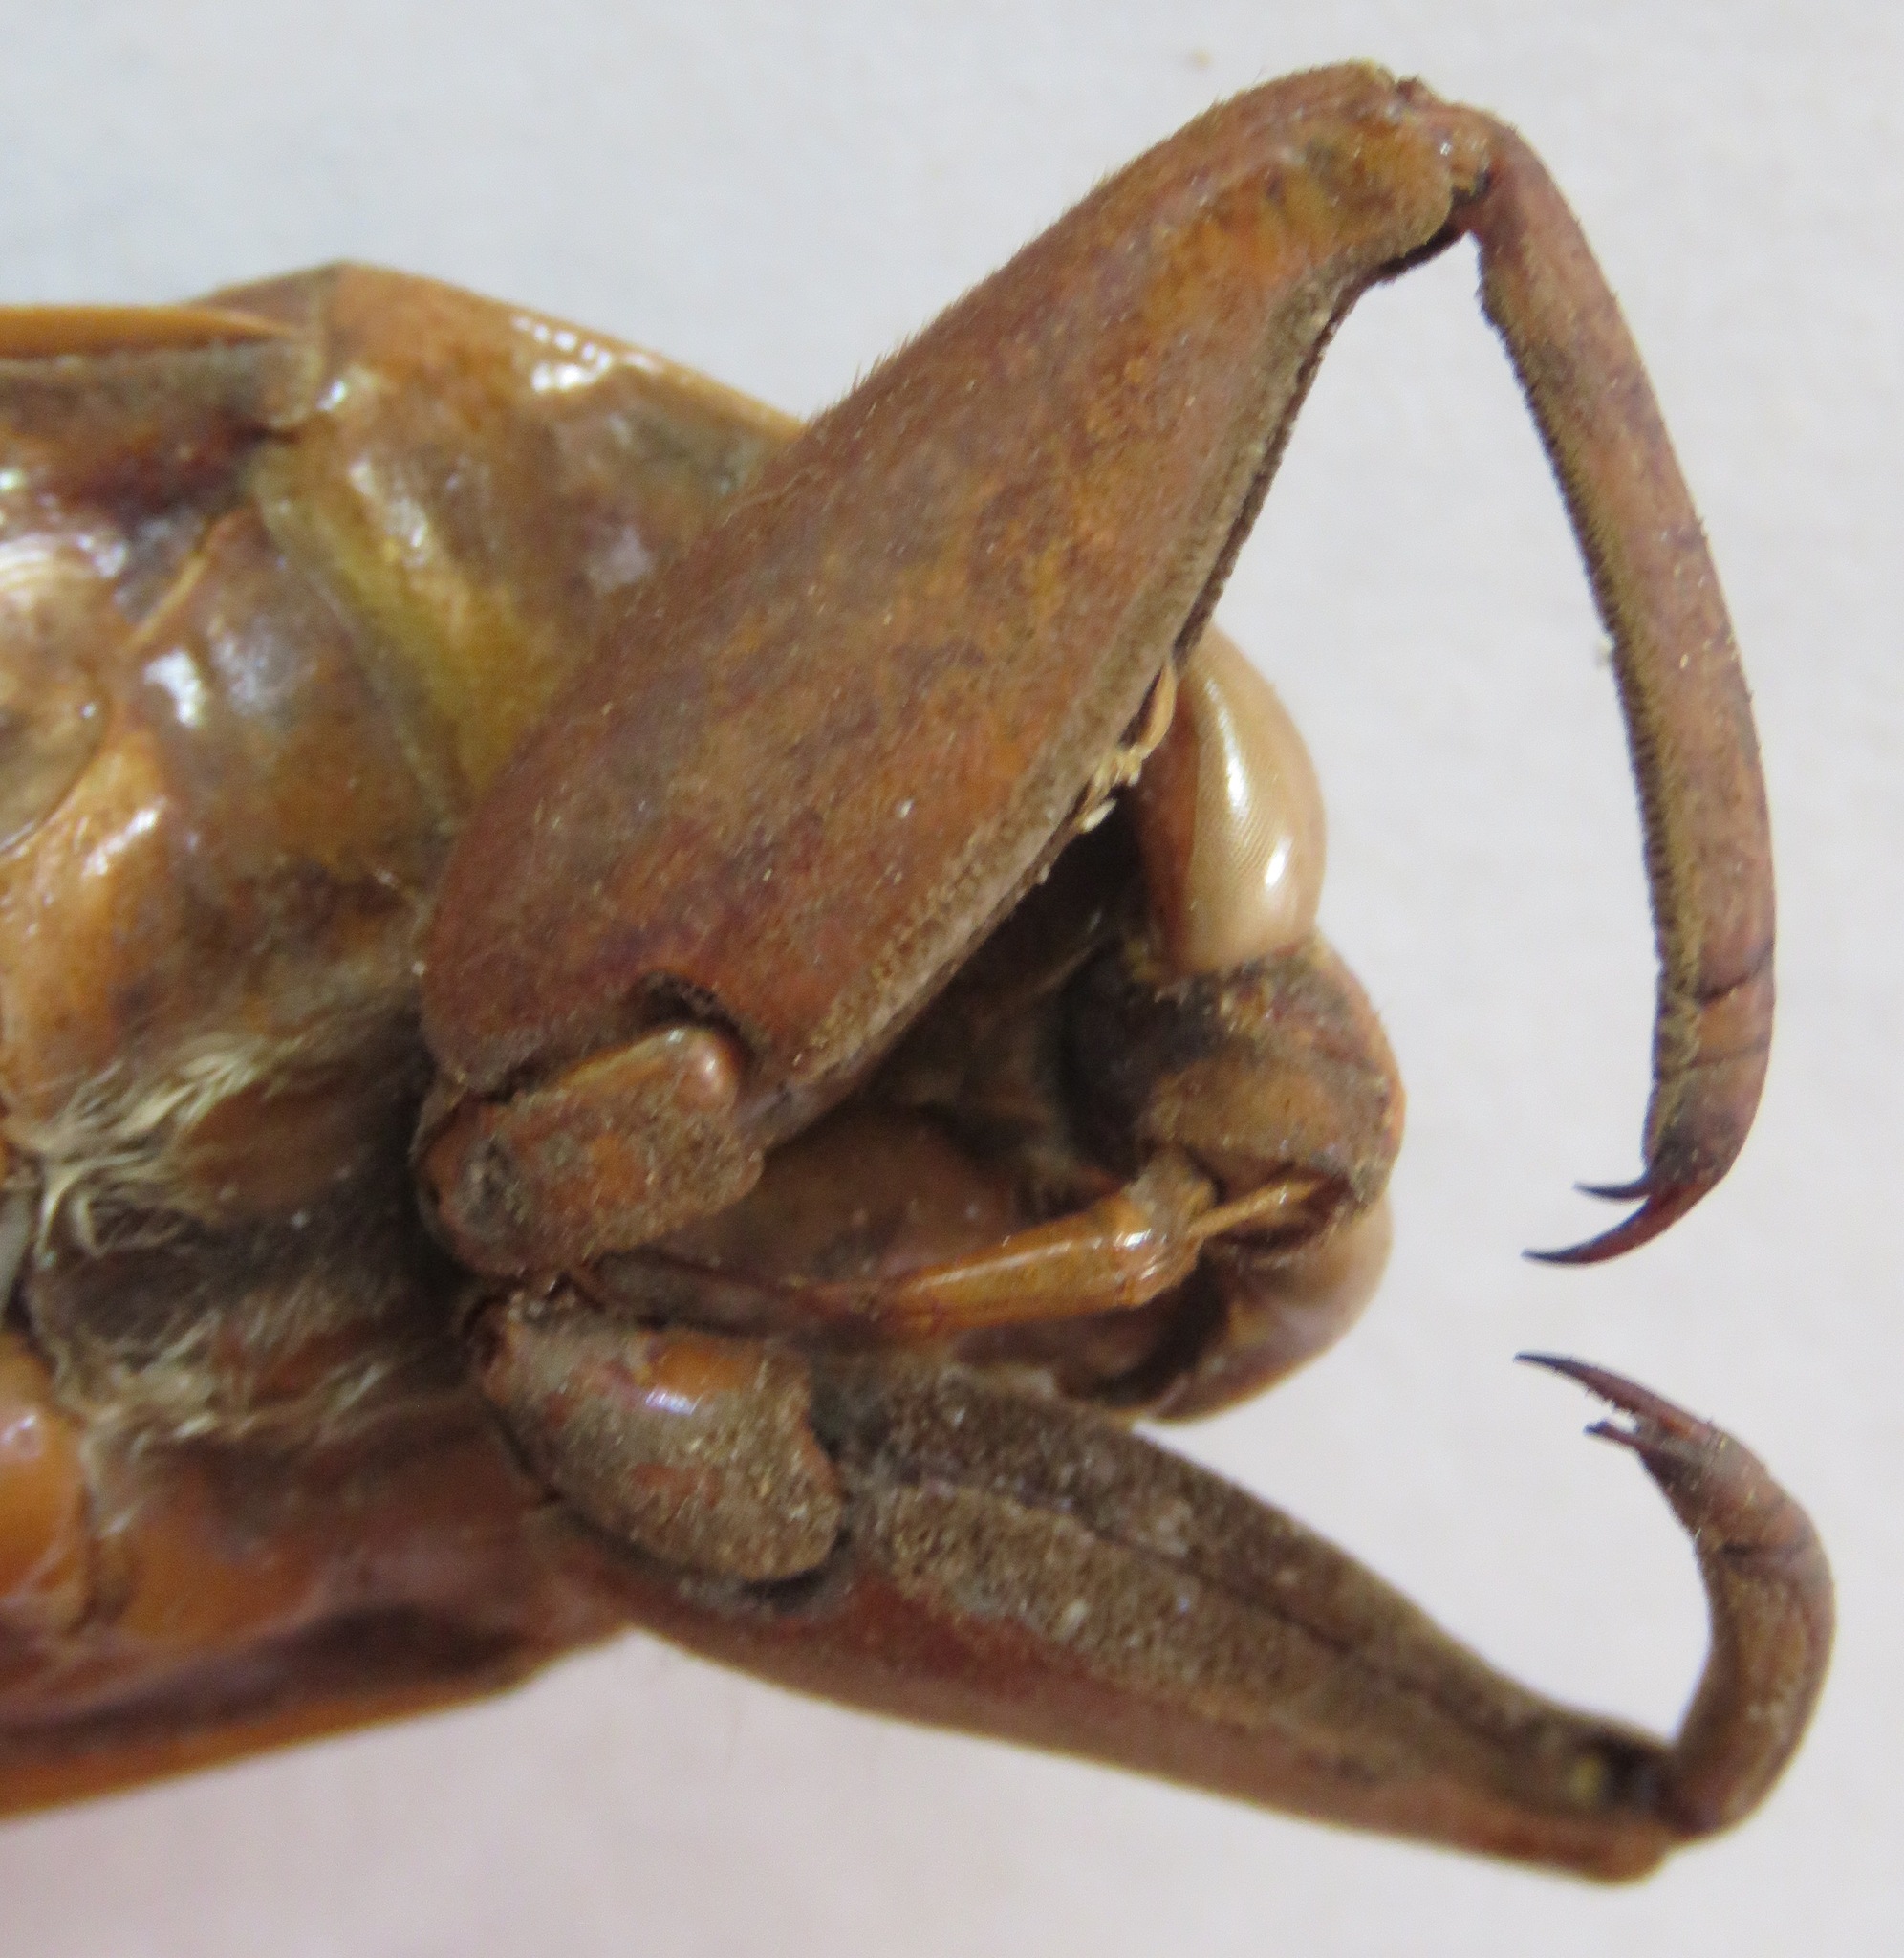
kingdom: Animalia
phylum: Arthropoda
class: Insecta
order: Hemiptera
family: Belostomatidae
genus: Hydrocyrius
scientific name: Hydrocyrius colombiae
